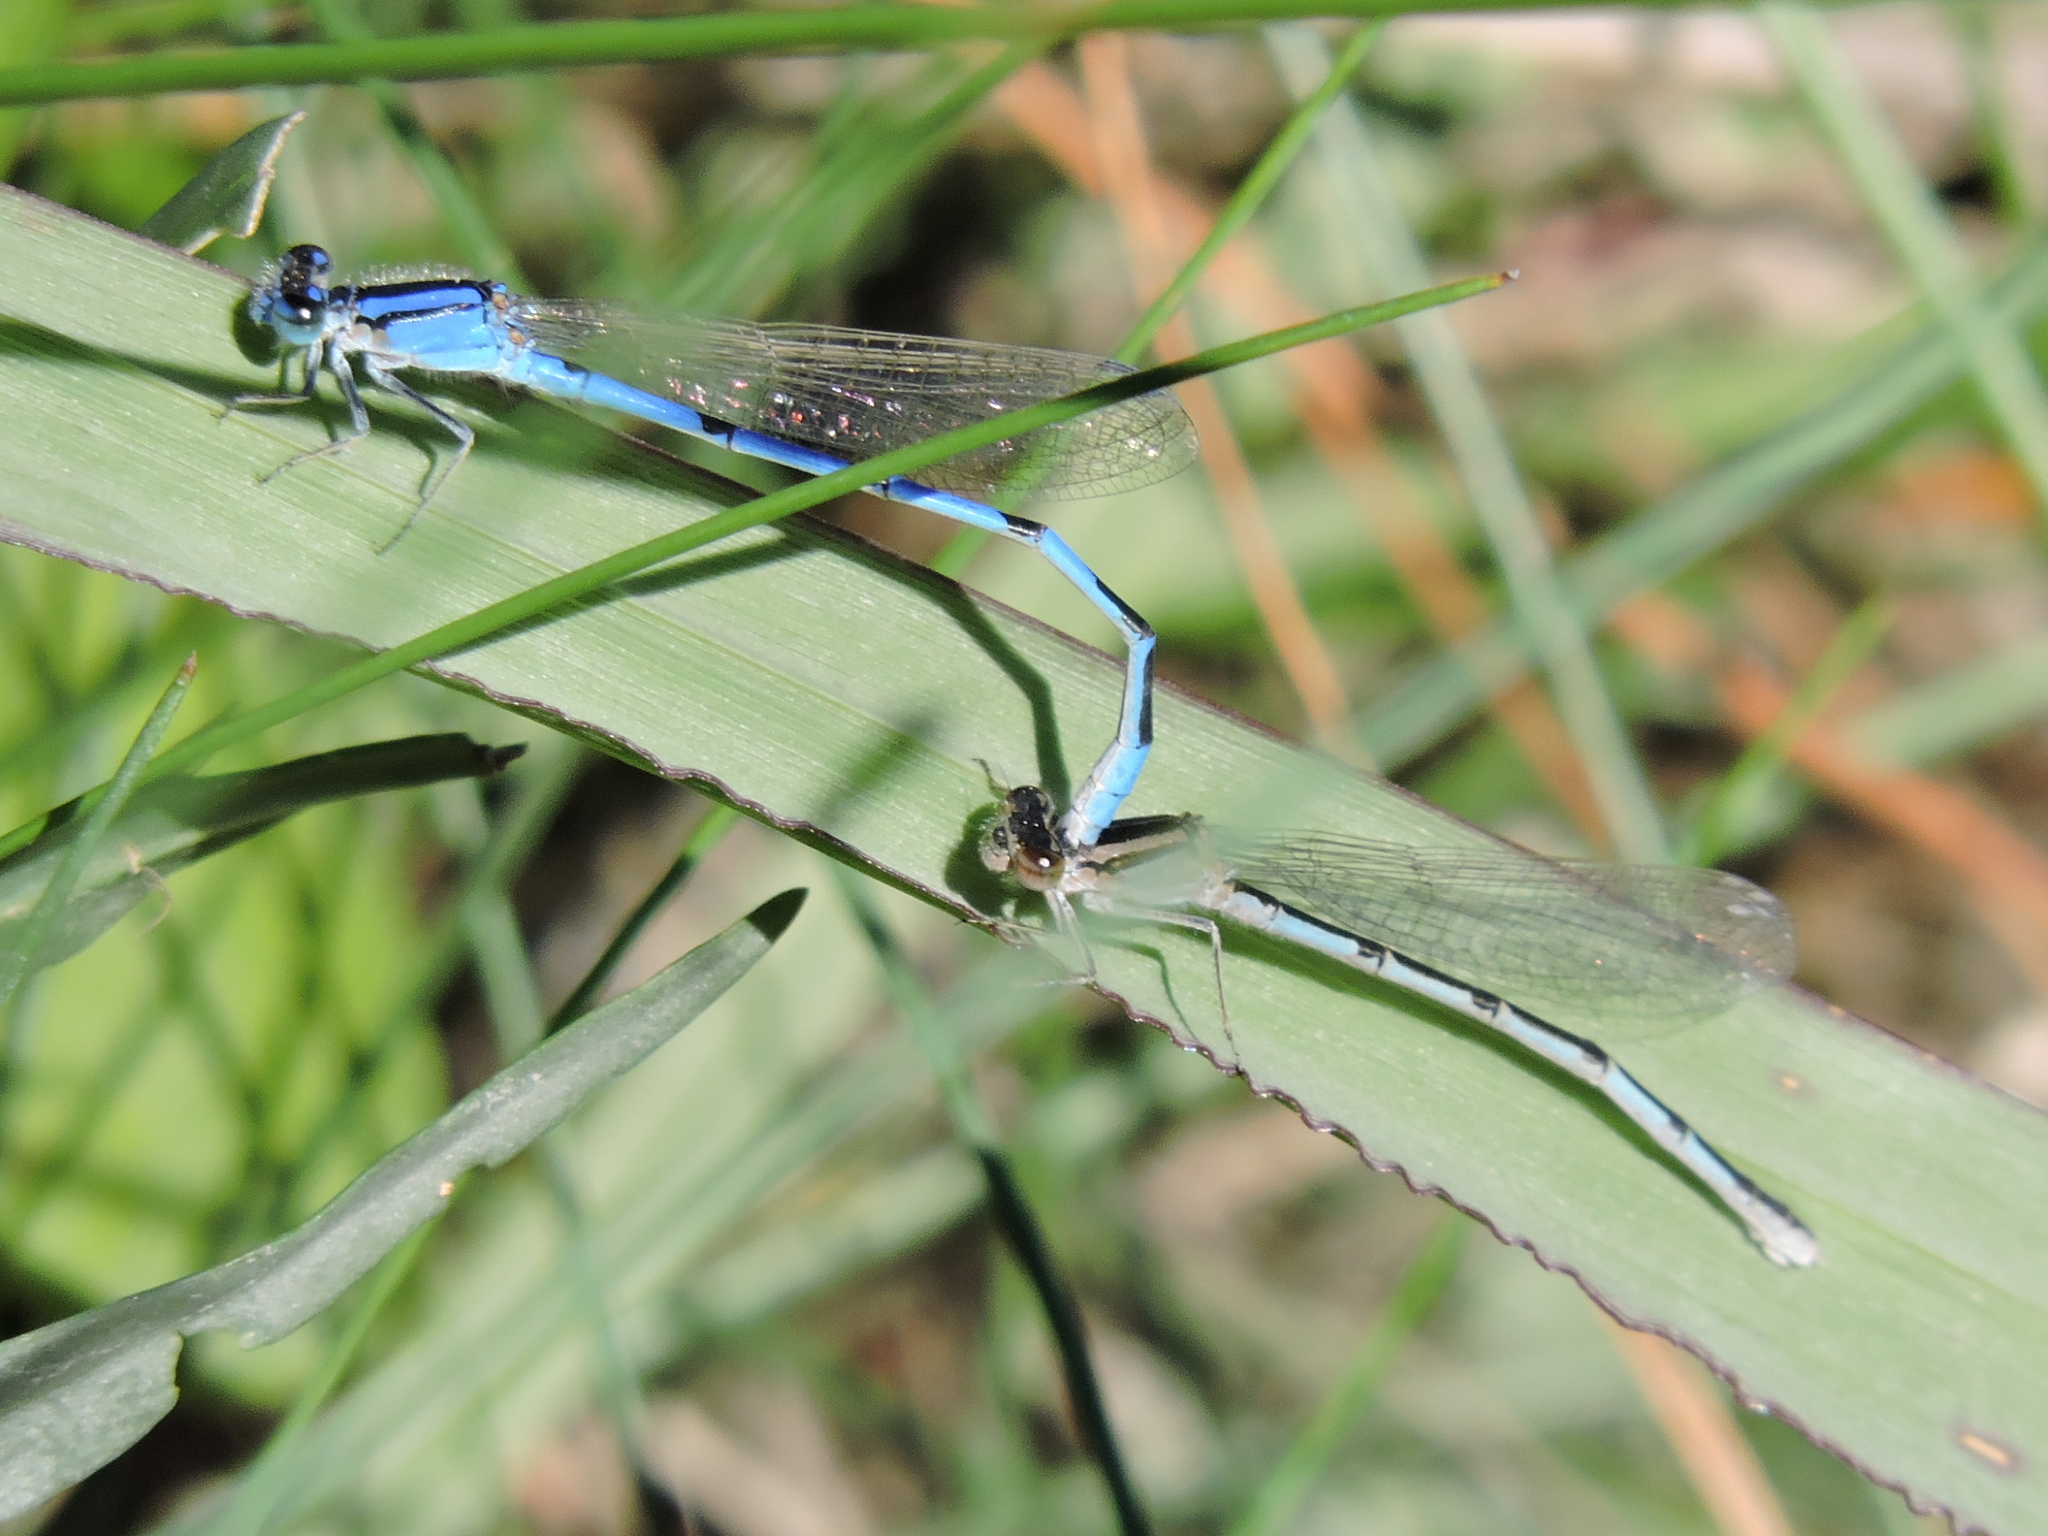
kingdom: Animalia
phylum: Arthropoda
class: Insecta
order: Odonata
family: Coenagrionidae
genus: Enallagma
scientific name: Enallagma civile
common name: Damselfly
